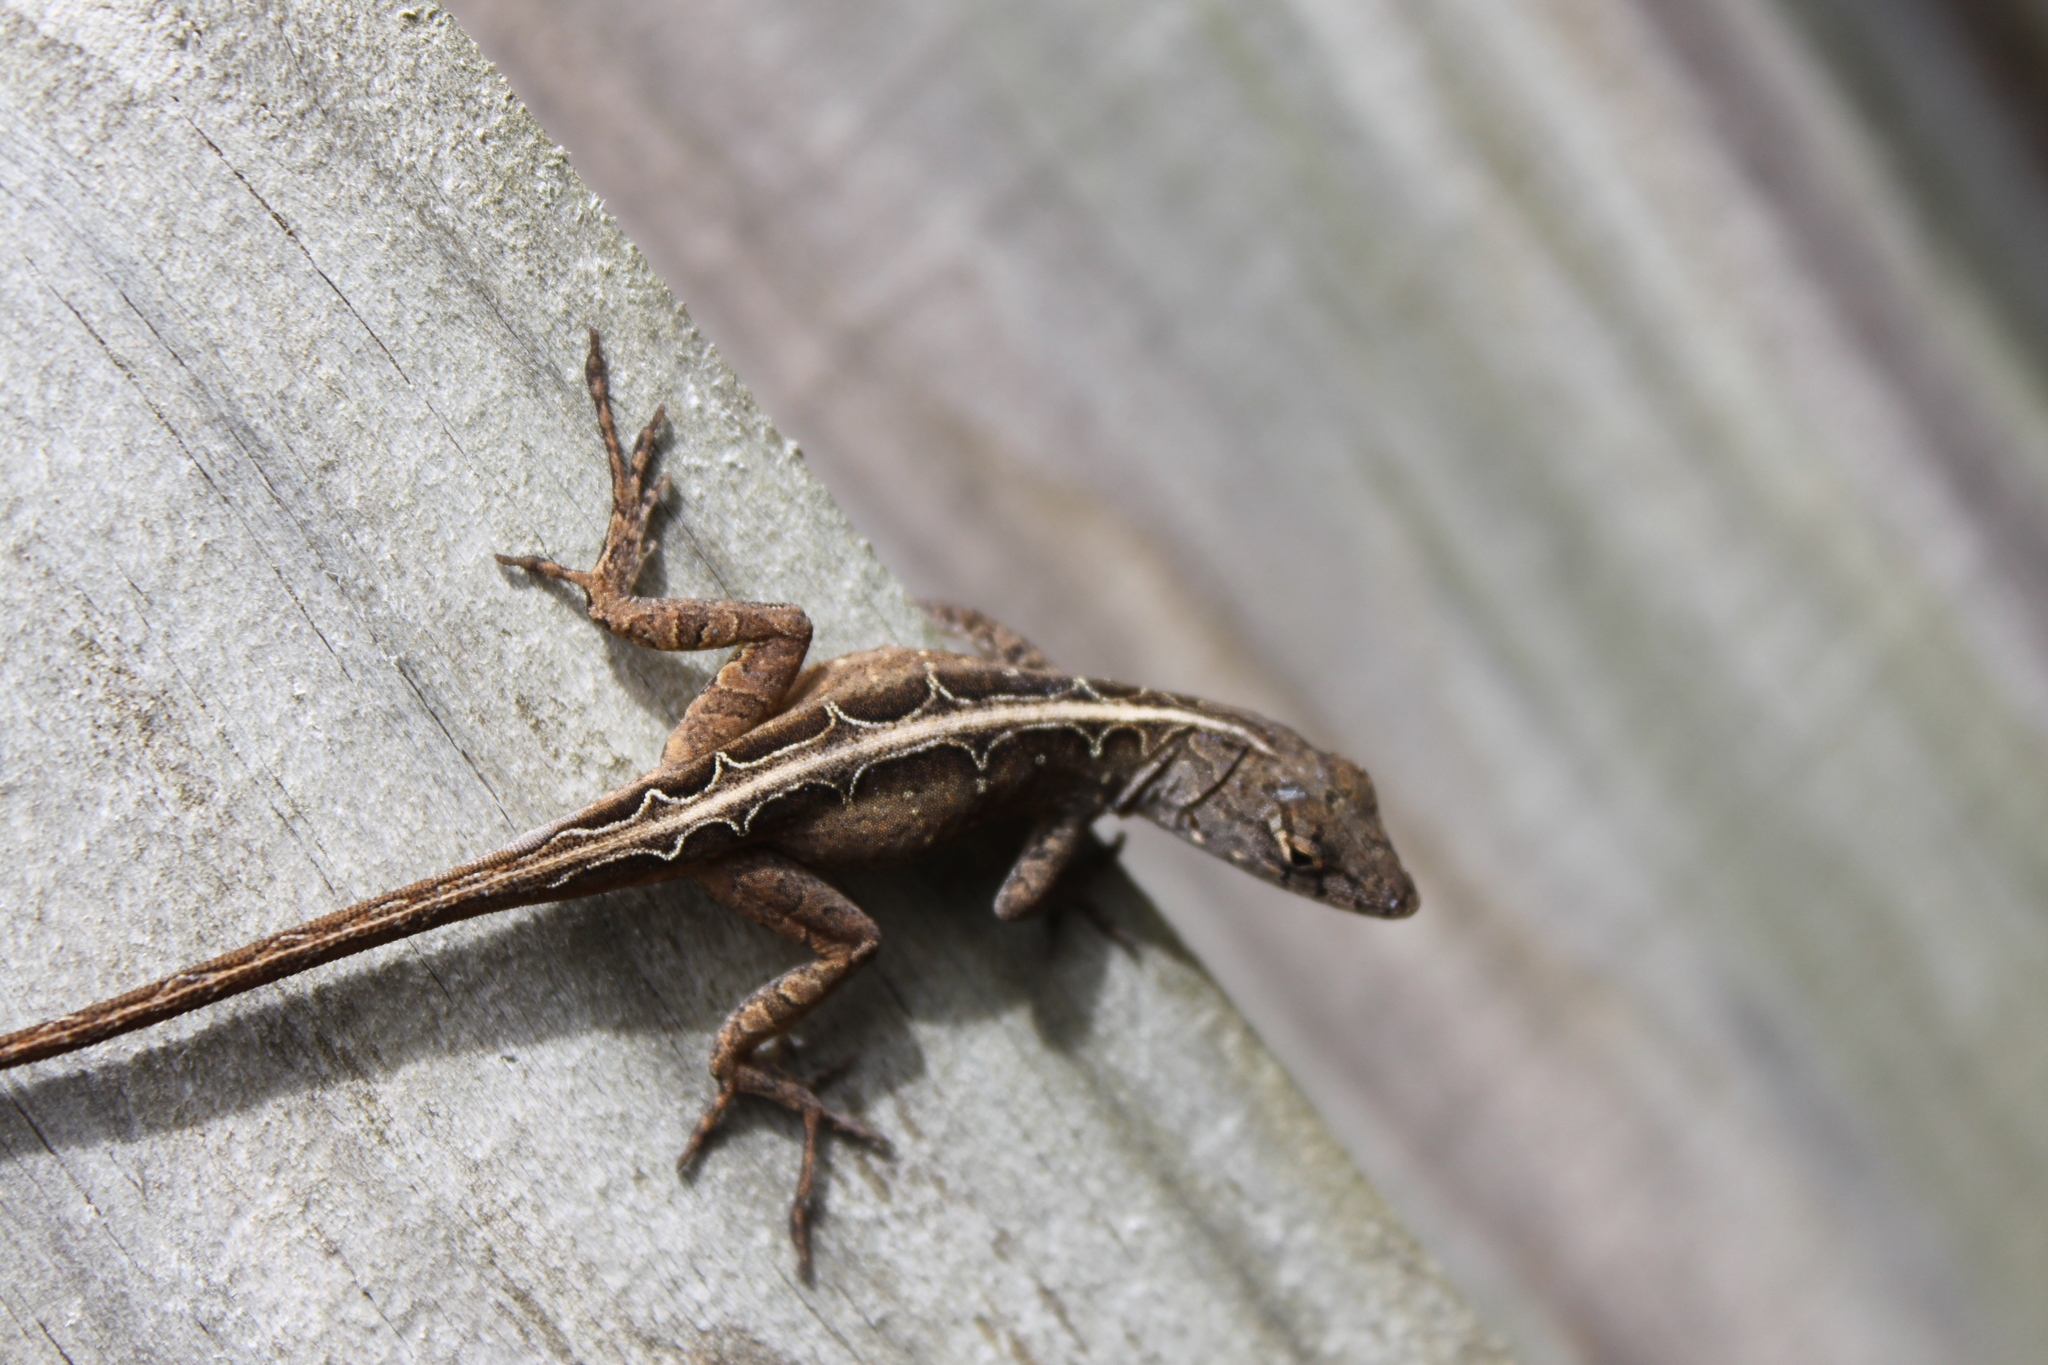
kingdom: Animalia
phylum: Chordata
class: Squamata
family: Dactyloidae
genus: Anolis
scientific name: Anolis sagrei
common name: Brown anole
